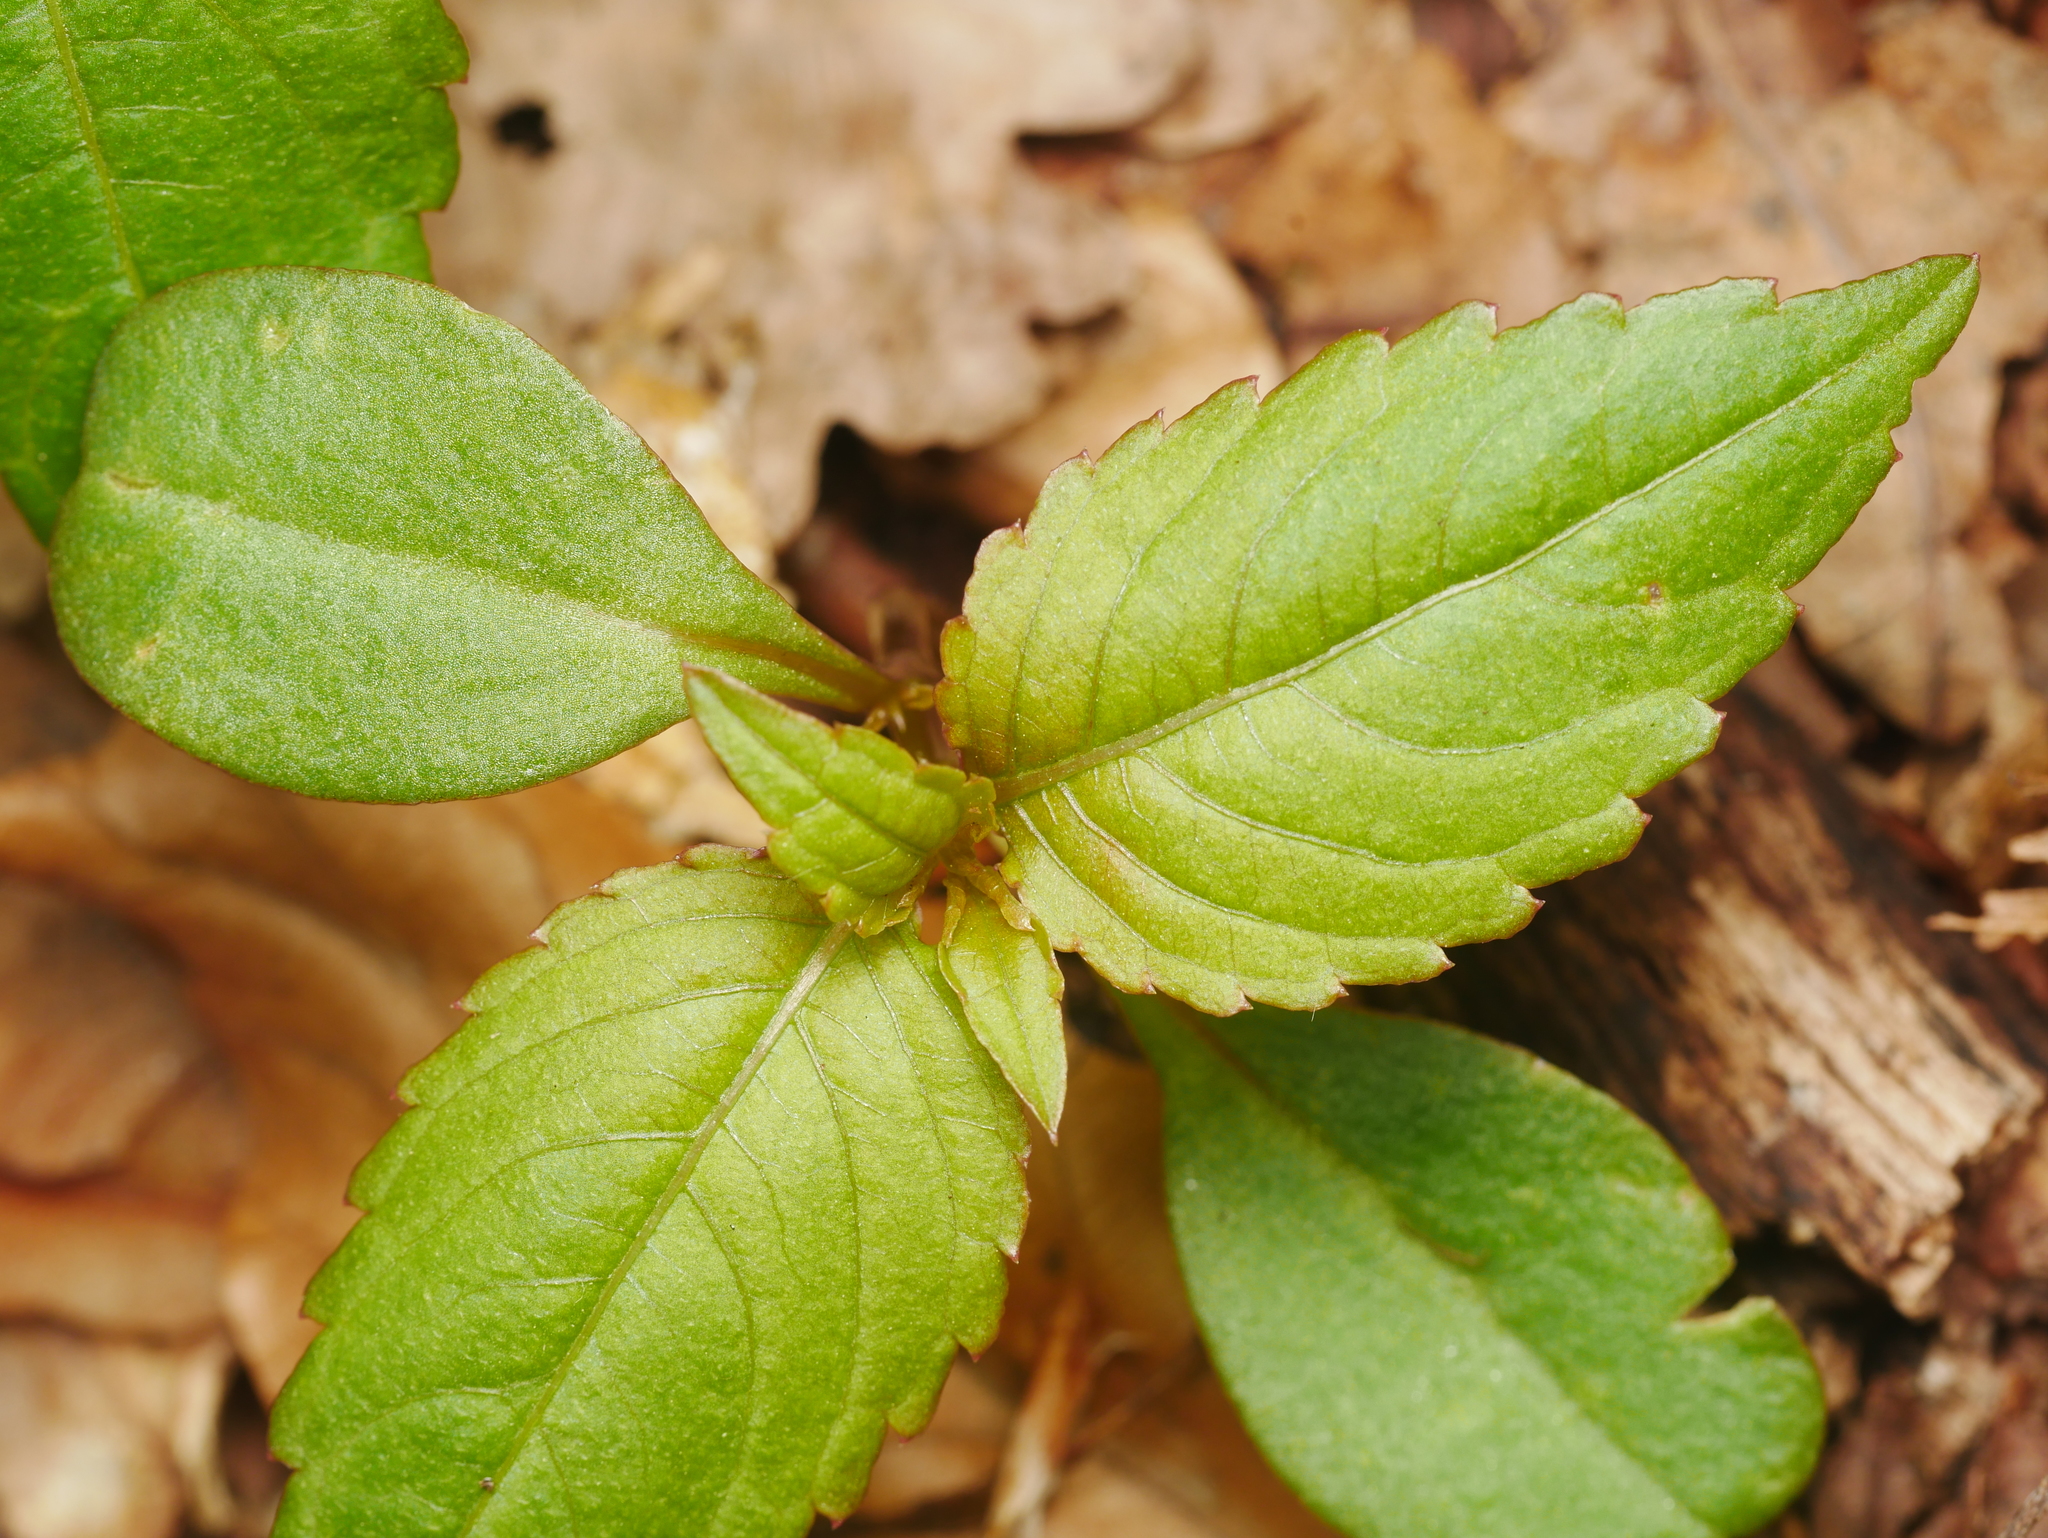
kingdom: Plantae
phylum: Tracheophyta
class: Magnoliopsida
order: Ericales
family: Balsaminaceae
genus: Impatiens
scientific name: Impatiens parviflora
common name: Small balsam
